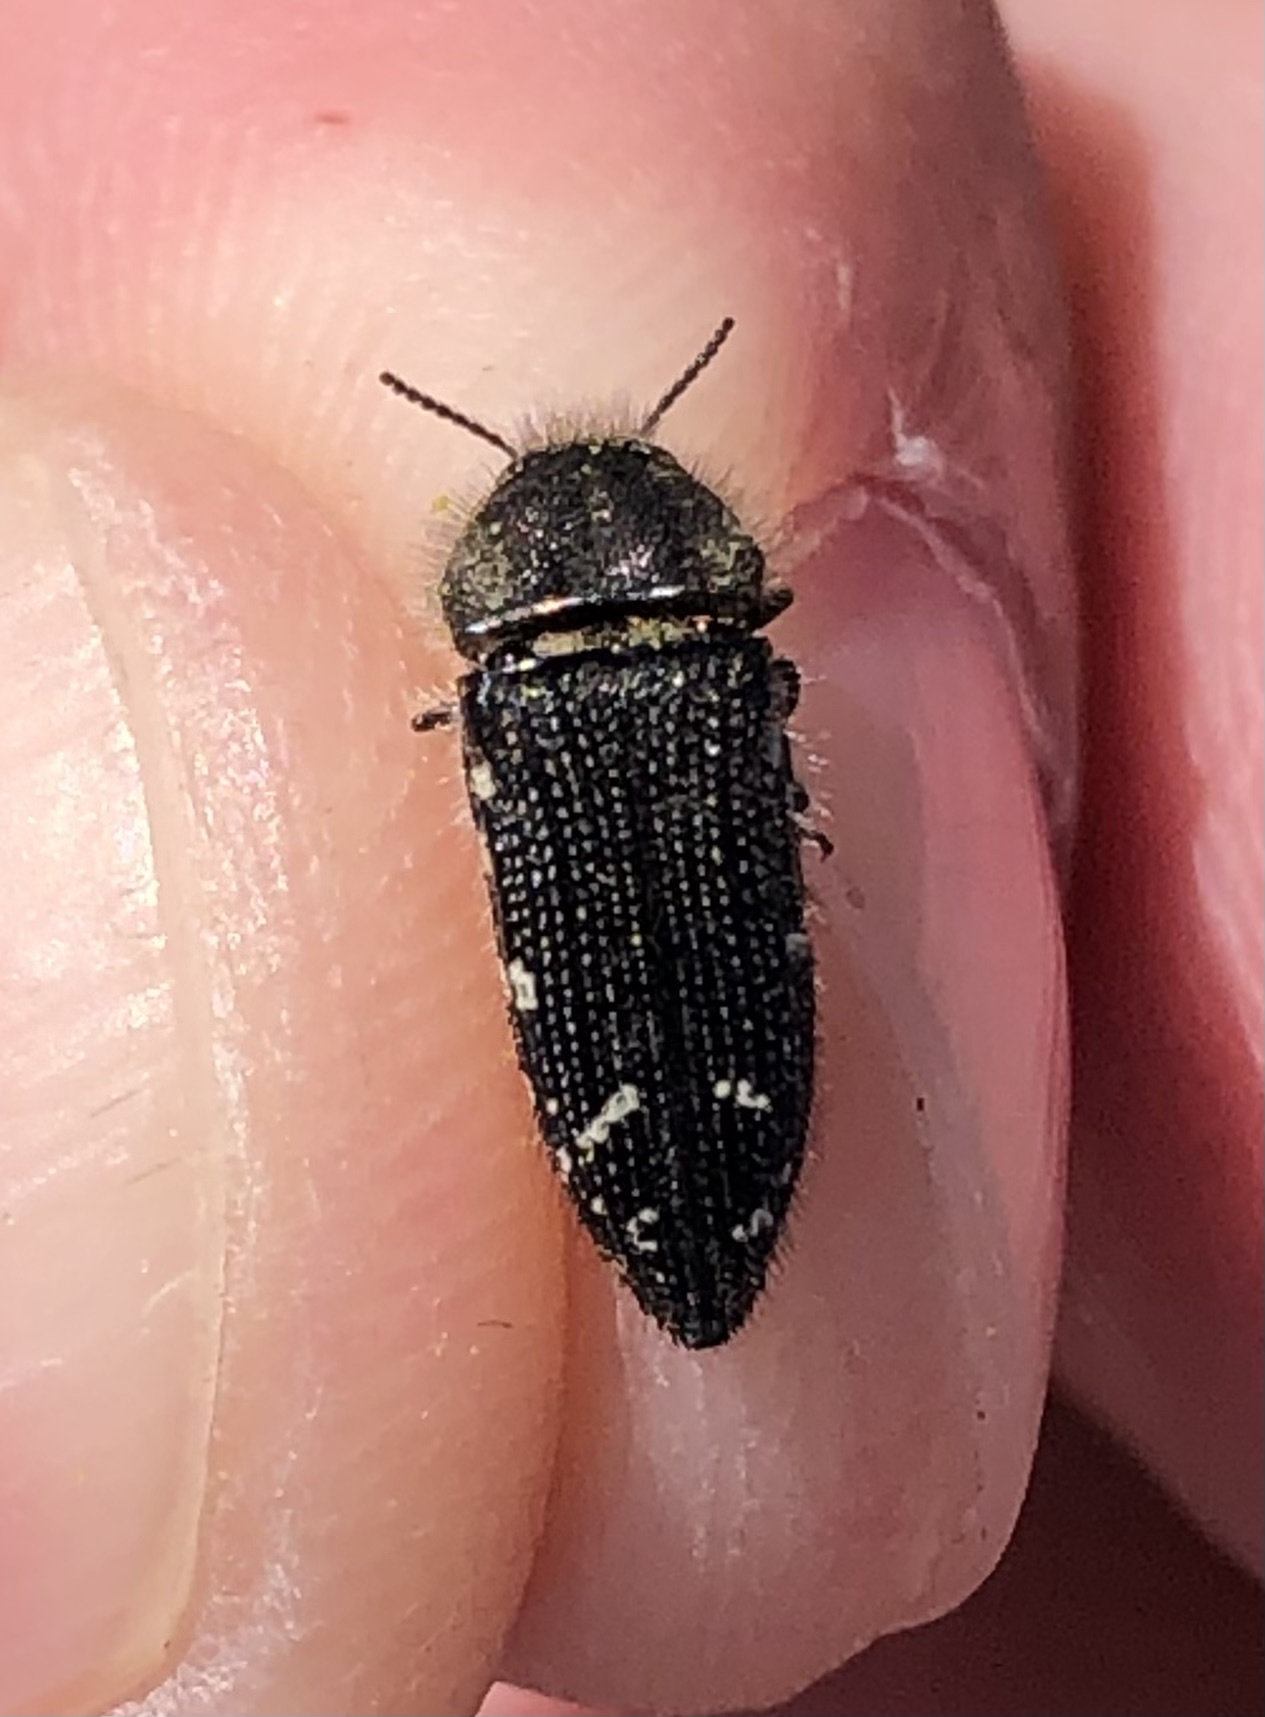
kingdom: Animalia
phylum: Arthropoda
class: Insecta
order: Coleoptera
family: Buprestidae
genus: Acmaeodera
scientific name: Acmaeodera ornatoides
